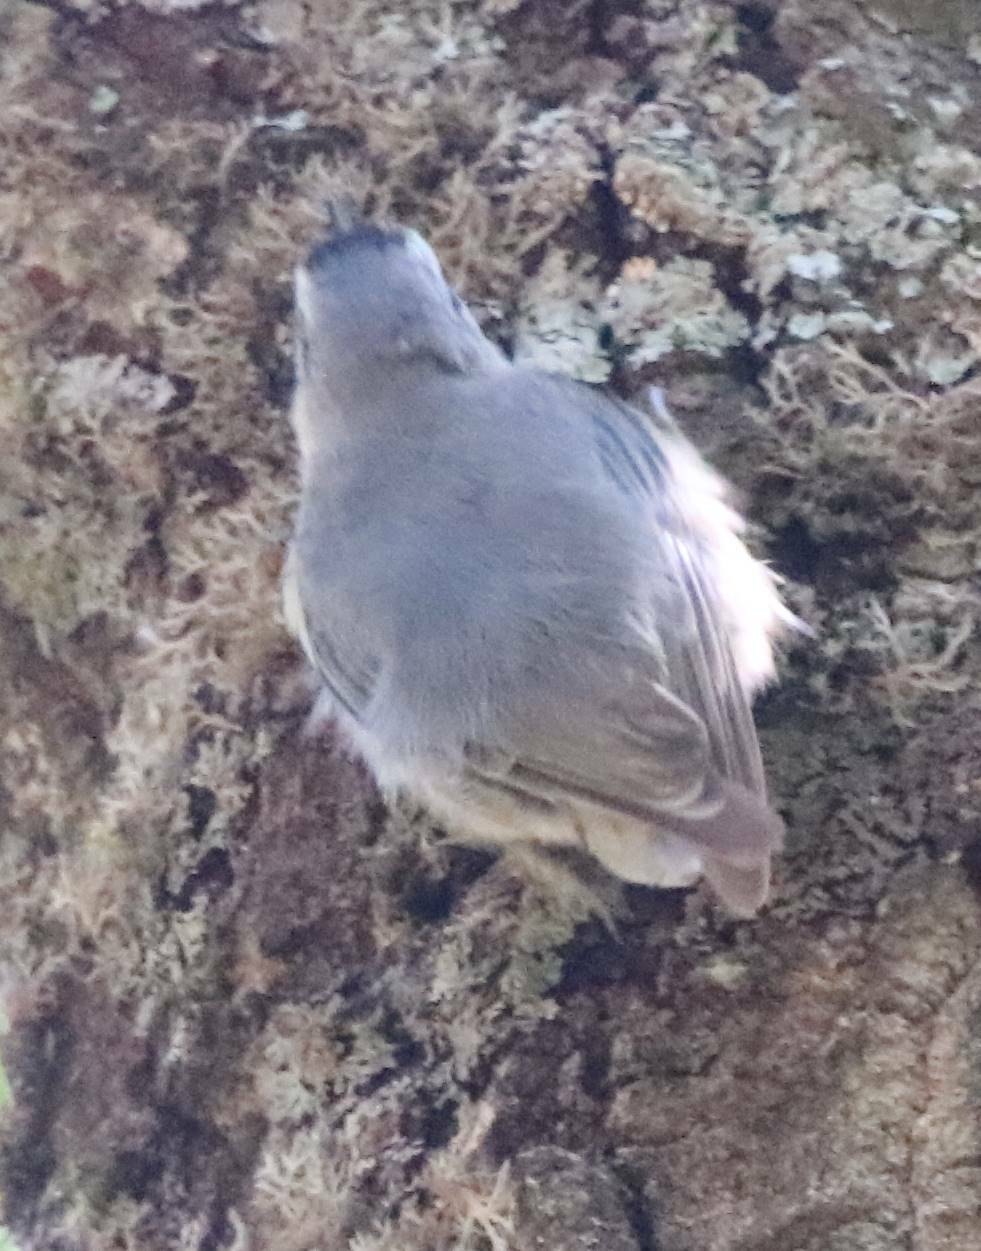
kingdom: Animalia
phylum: Chordata
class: Aves
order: Passeriformes
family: Sittidae
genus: Sitta
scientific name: Sitta ledanti
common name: Algerian nuthatch
